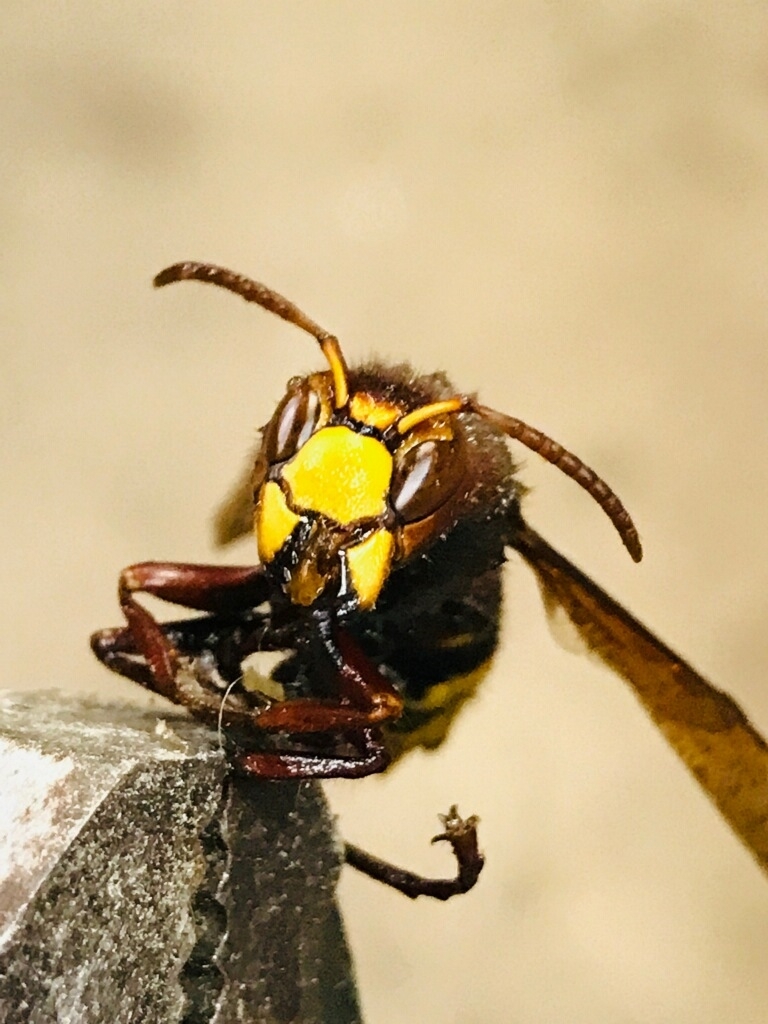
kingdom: Animalia
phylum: Arthropoda
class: Insecta
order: Hymenoptera
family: Vespidae
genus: Vespa
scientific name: Vespa crabro
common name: Hornet
